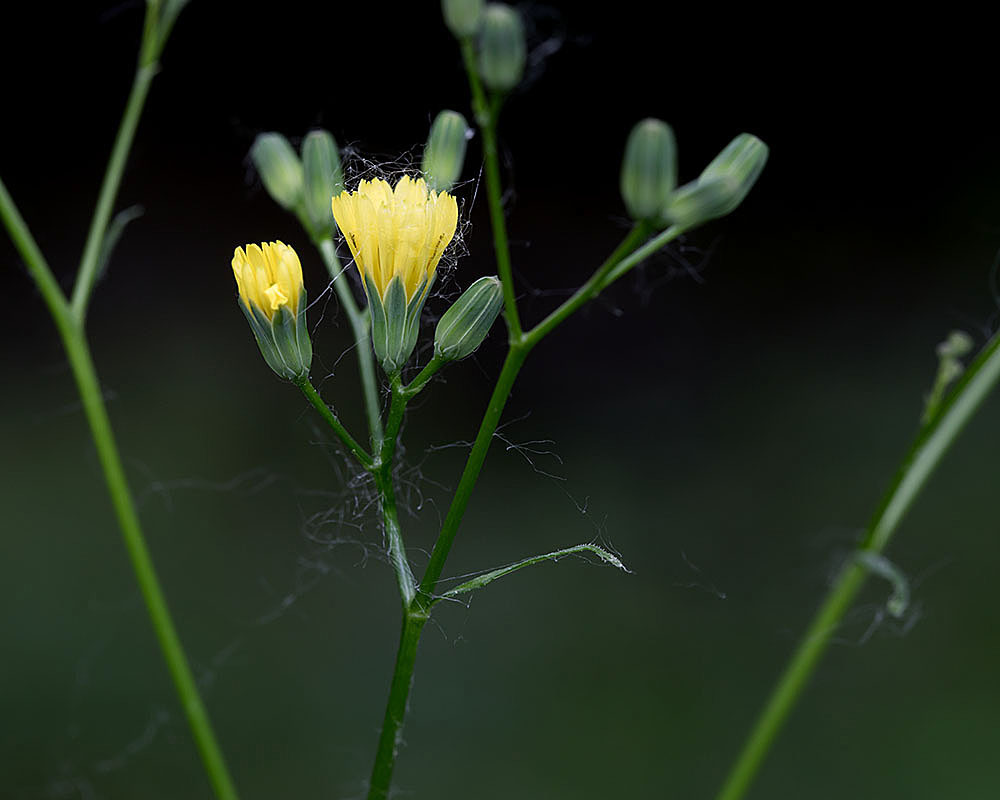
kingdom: Plantae
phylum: Tracheophyta
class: Magnoliopsida
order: Asterales
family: Asteraceae
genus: Lapsana
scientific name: Lapsana communis
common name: Nipplewort
